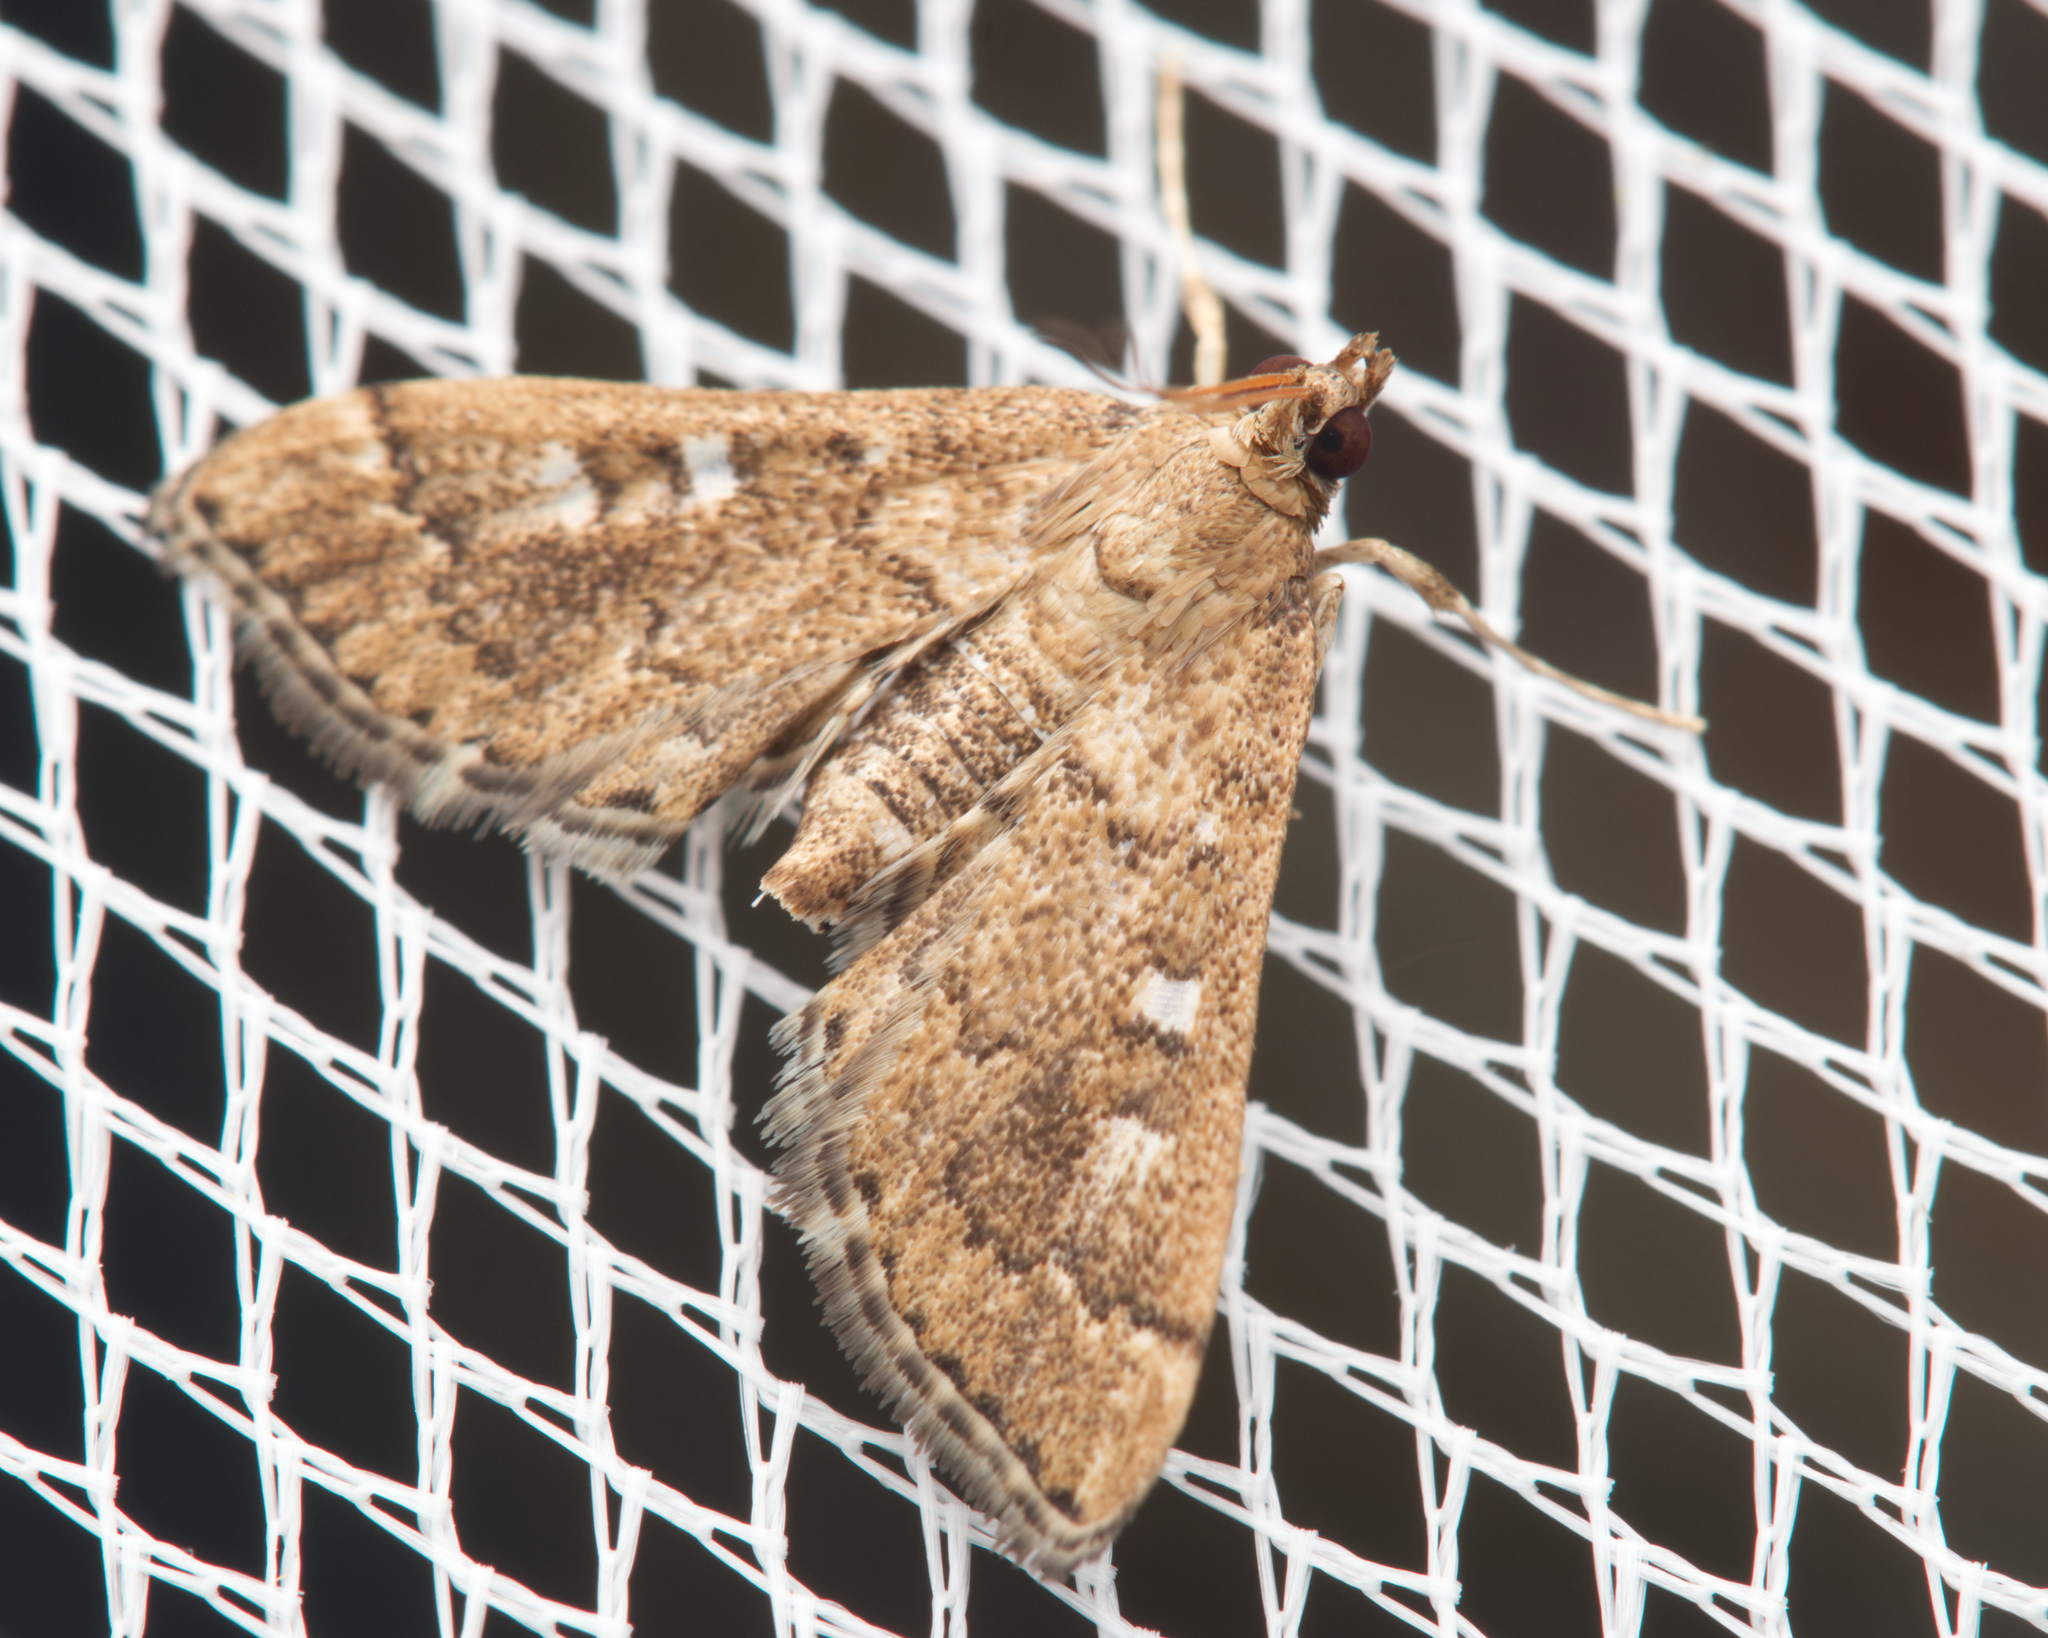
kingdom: Animalia
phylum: Arthropoda
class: Insecta
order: Lepidoptera
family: Crambidae
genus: Nacoleia
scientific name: Nacoleia rhoeoalis
